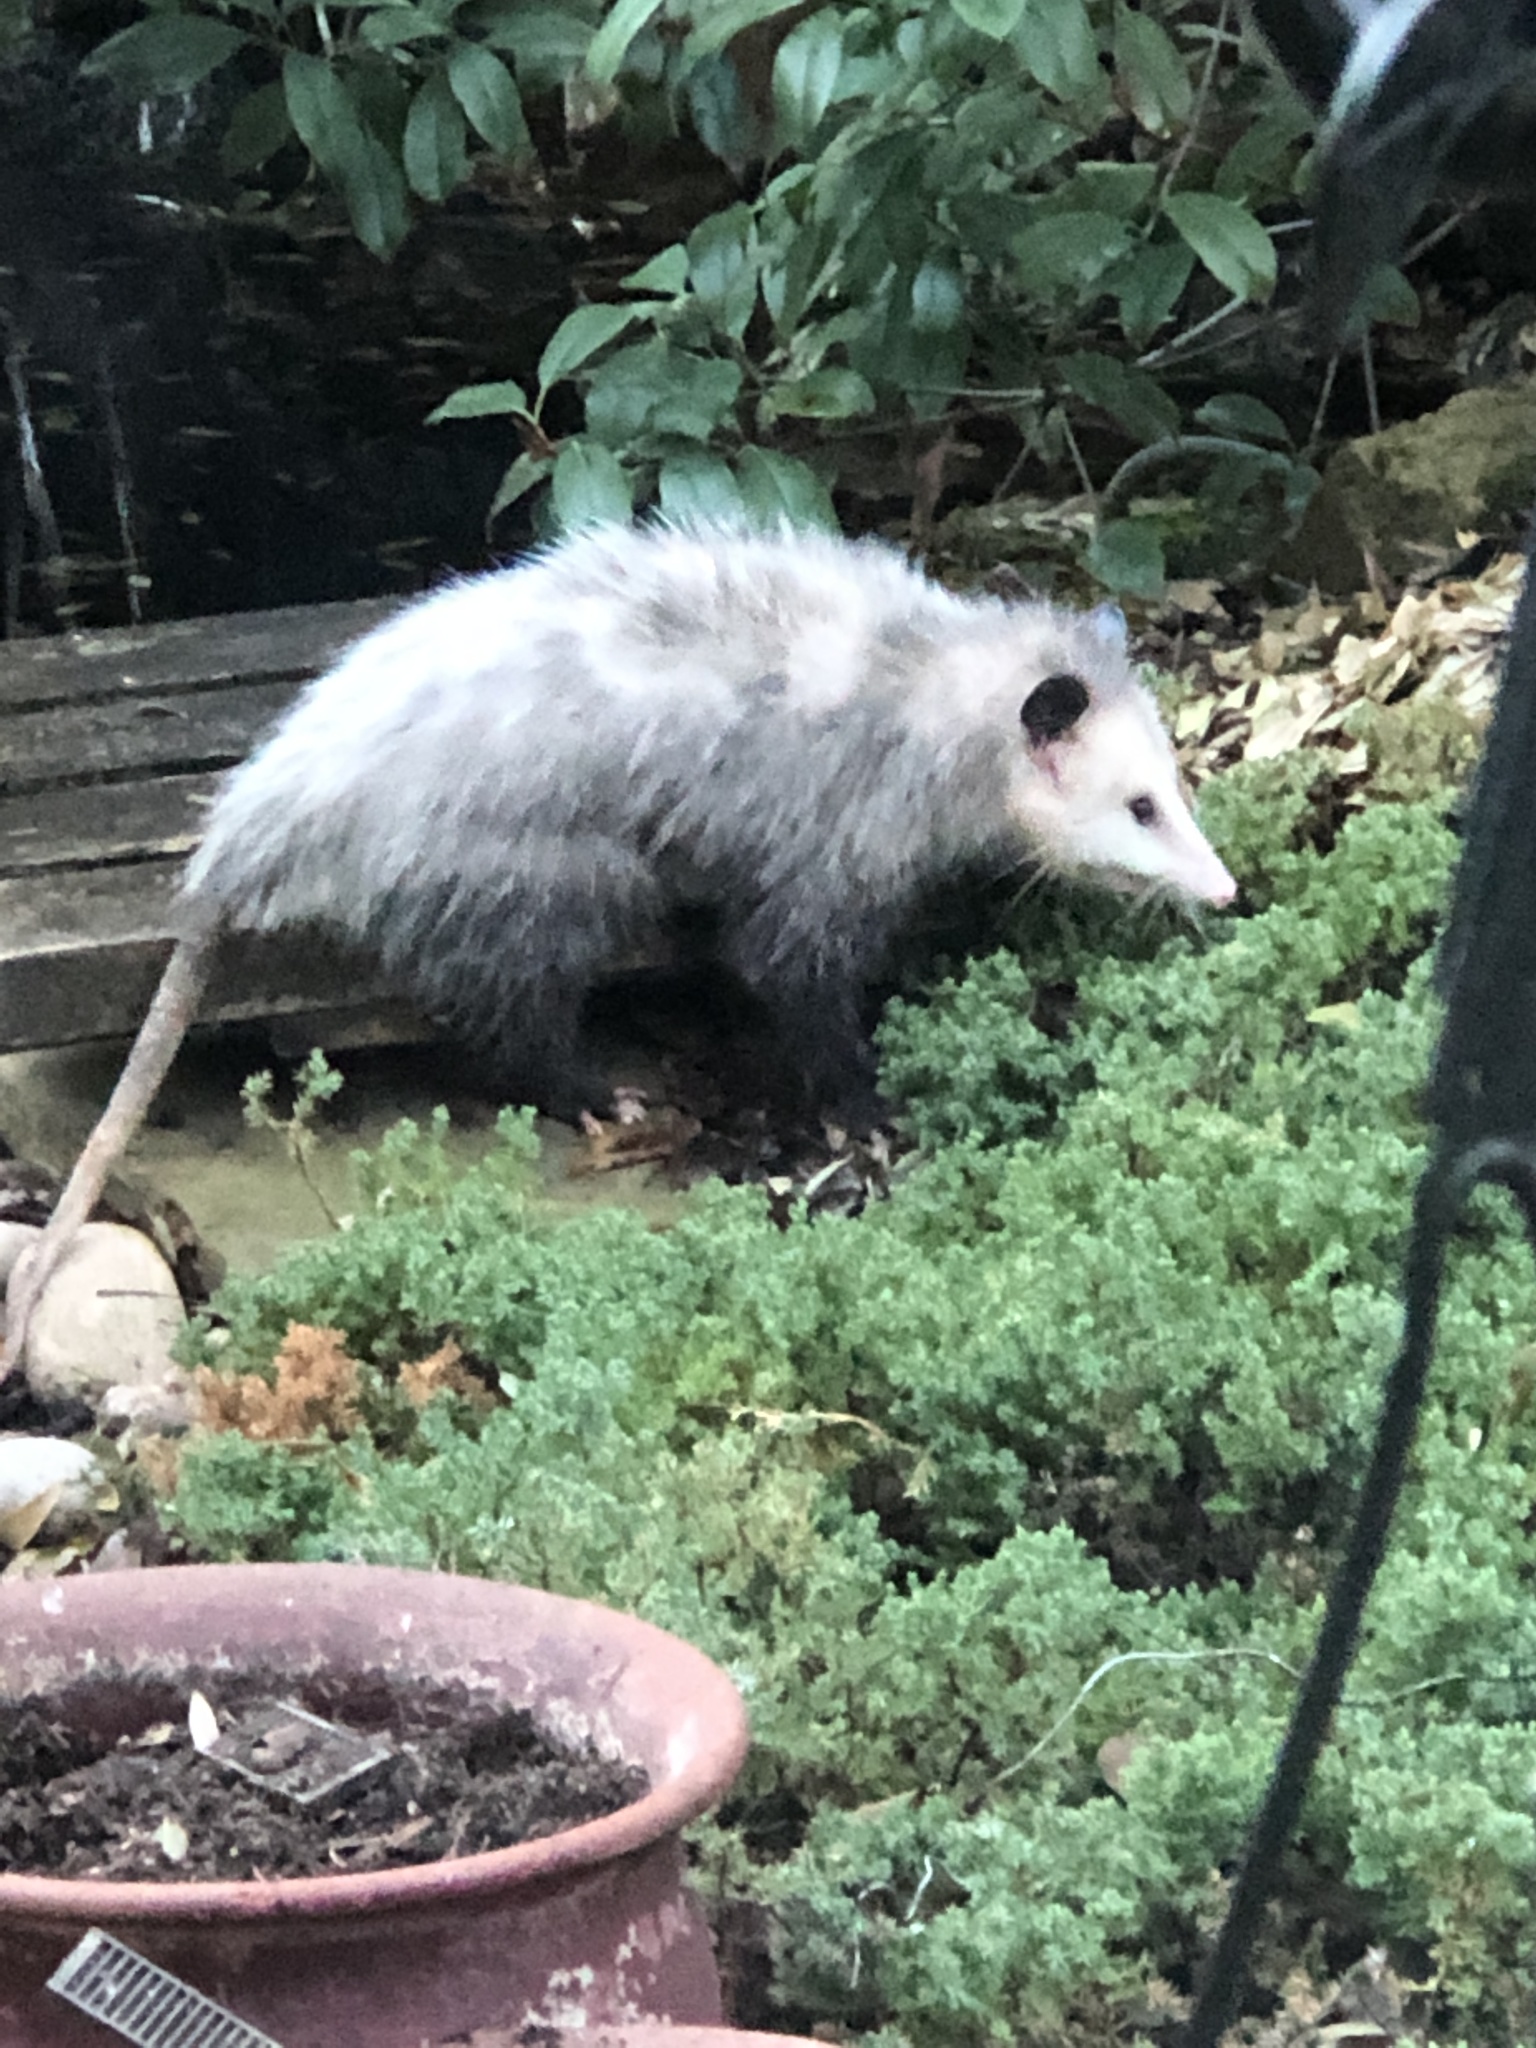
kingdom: Animalia
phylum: Chordata
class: Mammalia
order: Didelphimorphia
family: Didelphidae
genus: Didelphis
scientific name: Didelphis virginiana
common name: Virginia opossum
